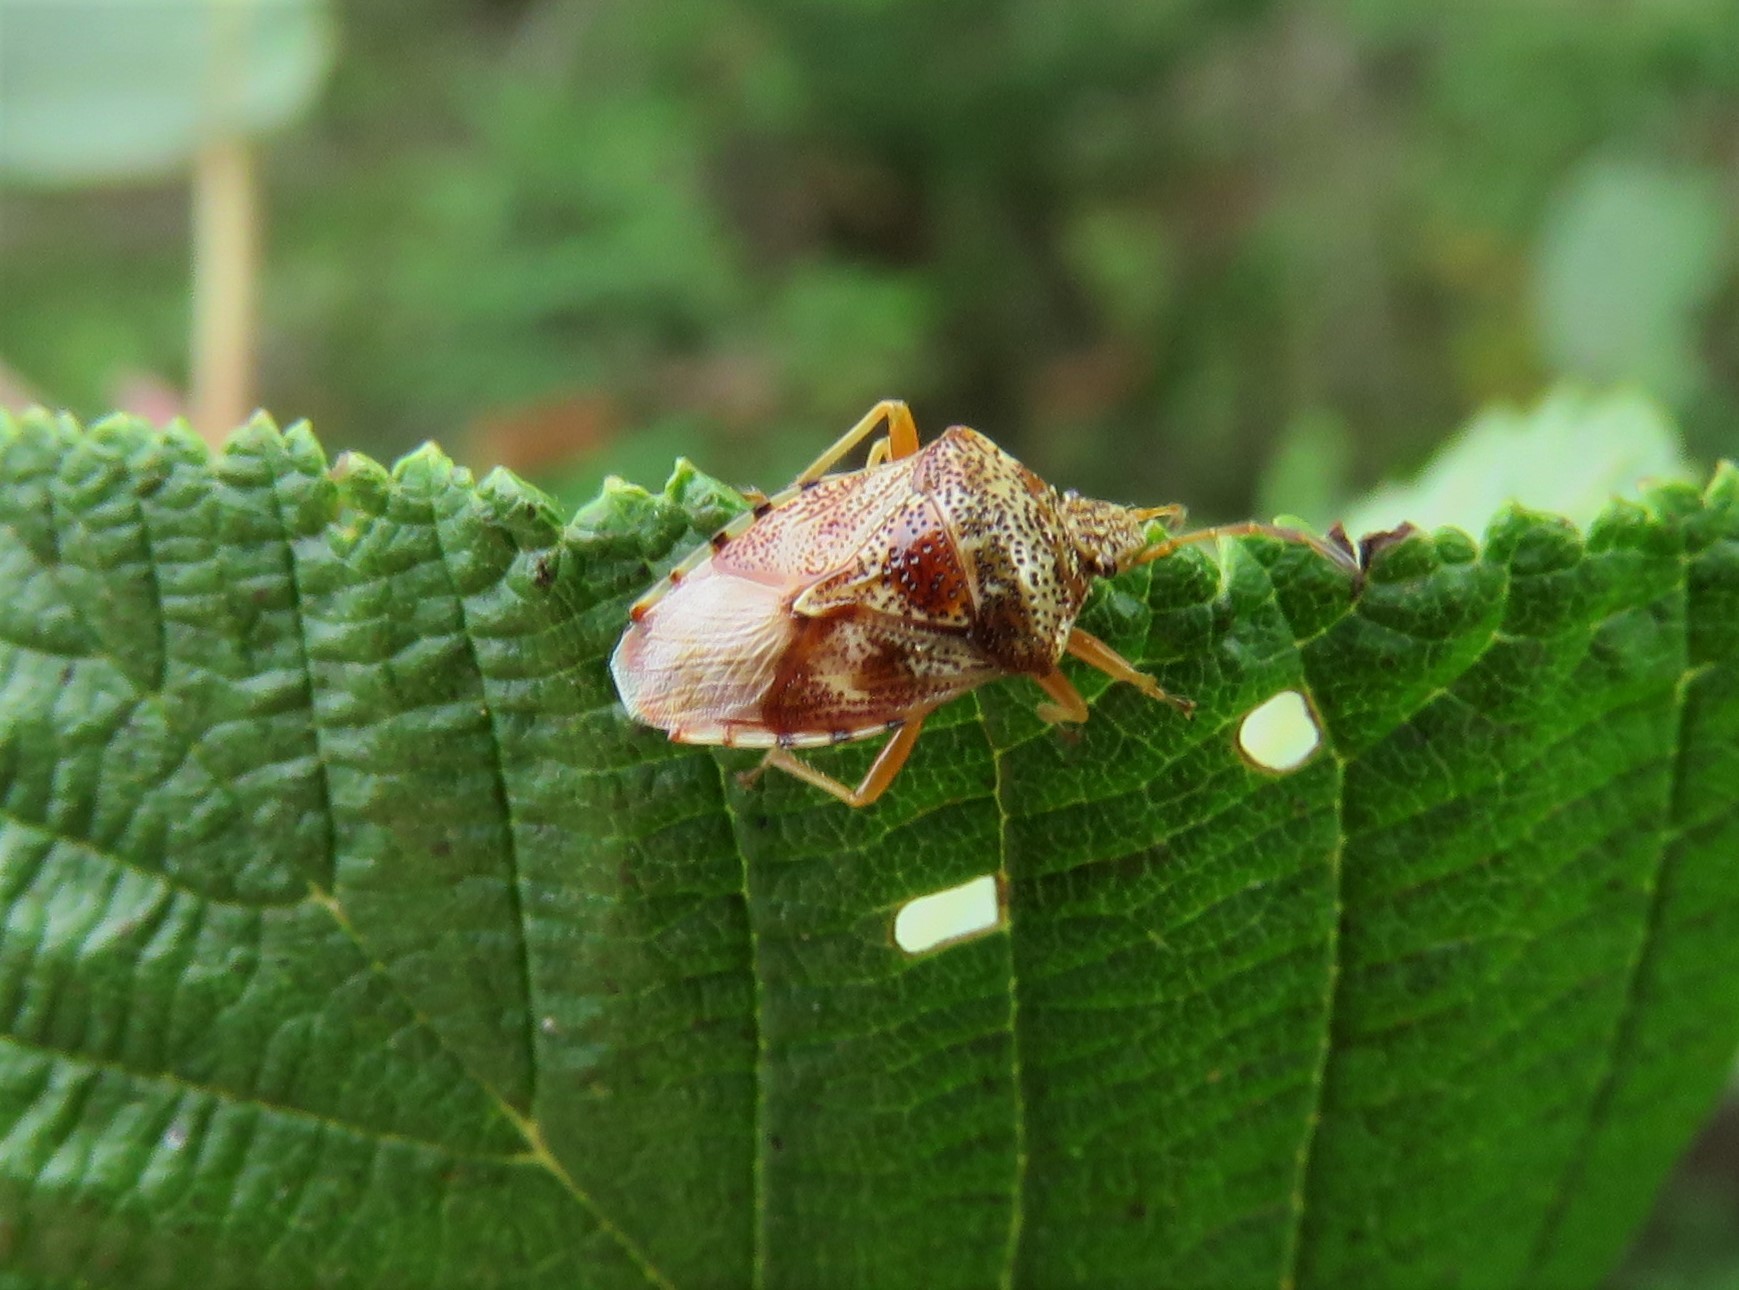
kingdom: Animalia
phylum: Arthropoda
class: Insecta
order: Hemiptera
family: Acanthosomatidae
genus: Elasmucha
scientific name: Elasmucha lateralis
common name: Shield bug
